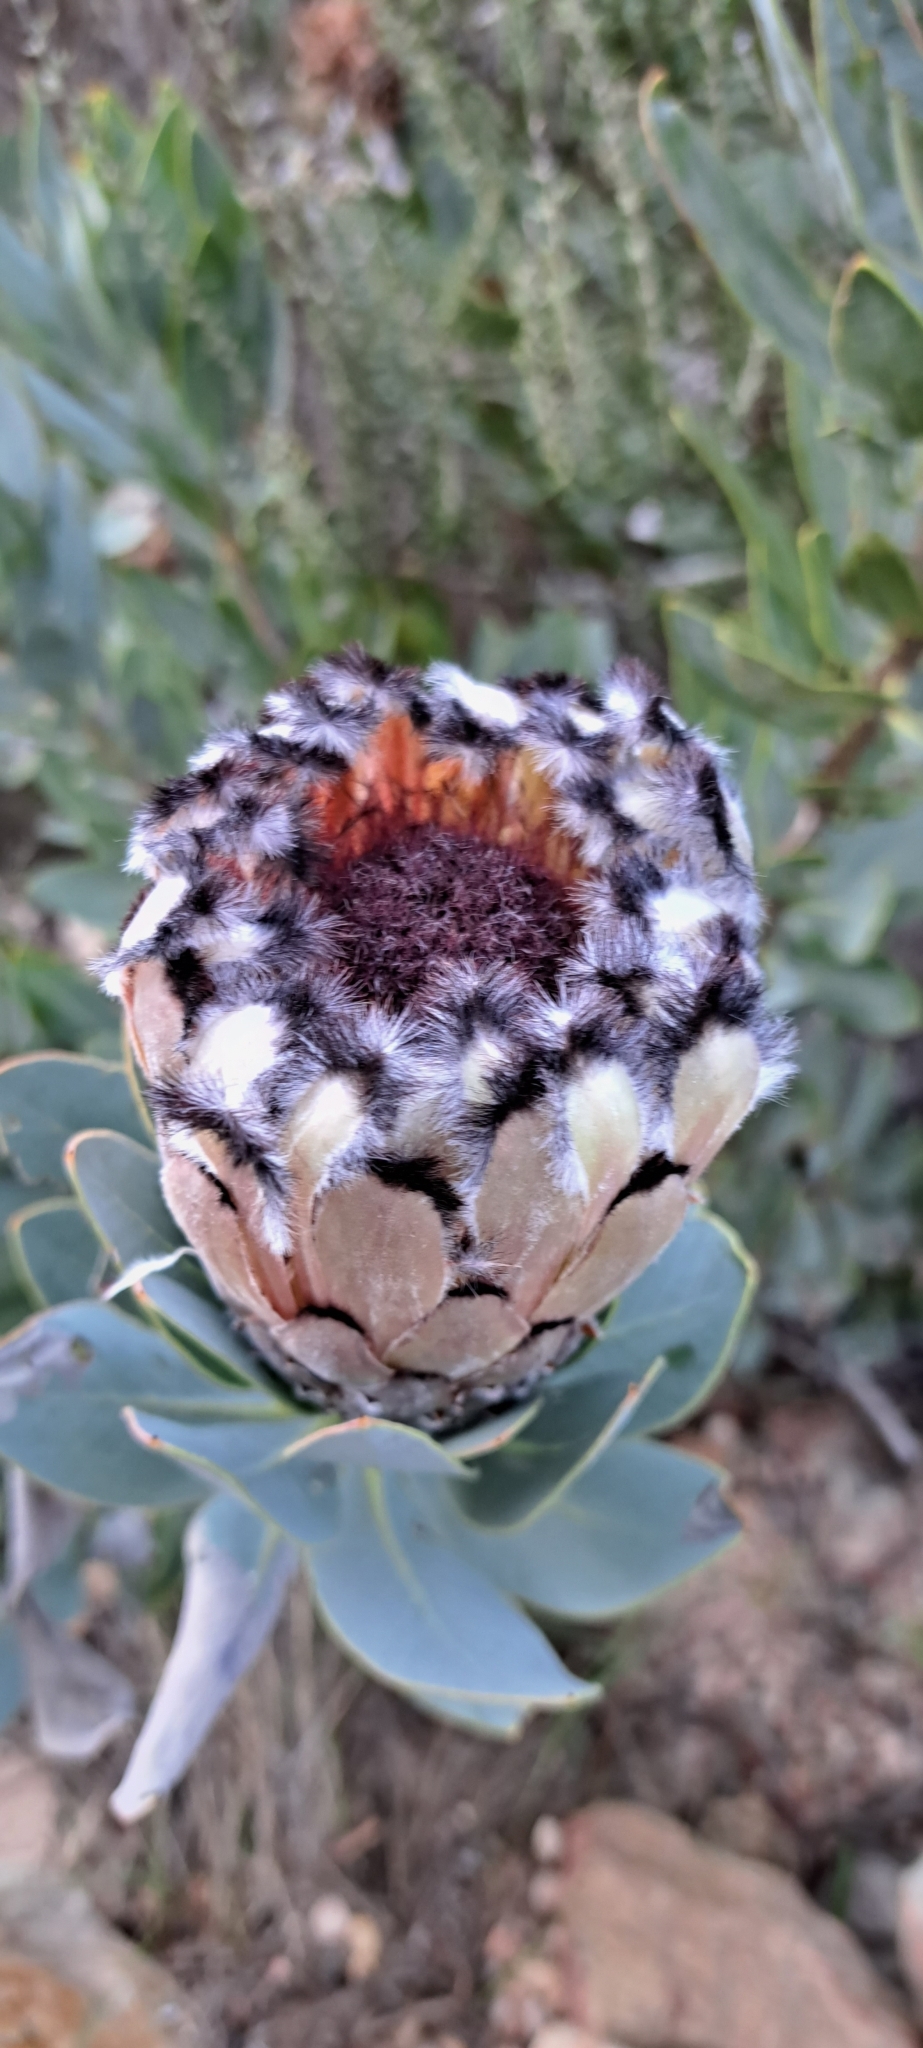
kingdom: Plantae
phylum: Tracheophyta
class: Magnoliopsida
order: Proteales
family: Proteaceae
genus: Protea
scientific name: Protea laurifolia
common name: Grey-leaf sugarbsh
